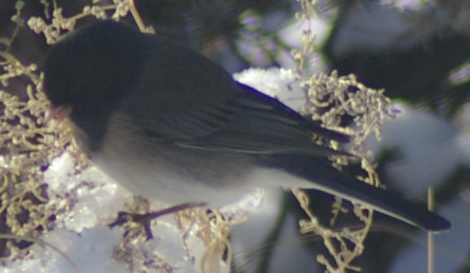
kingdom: Animalia
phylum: Chordata
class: Aves
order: Passeriformes
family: Passerellidae
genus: Junco
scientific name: Junco hyemalis
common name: Dark-eyed junco
